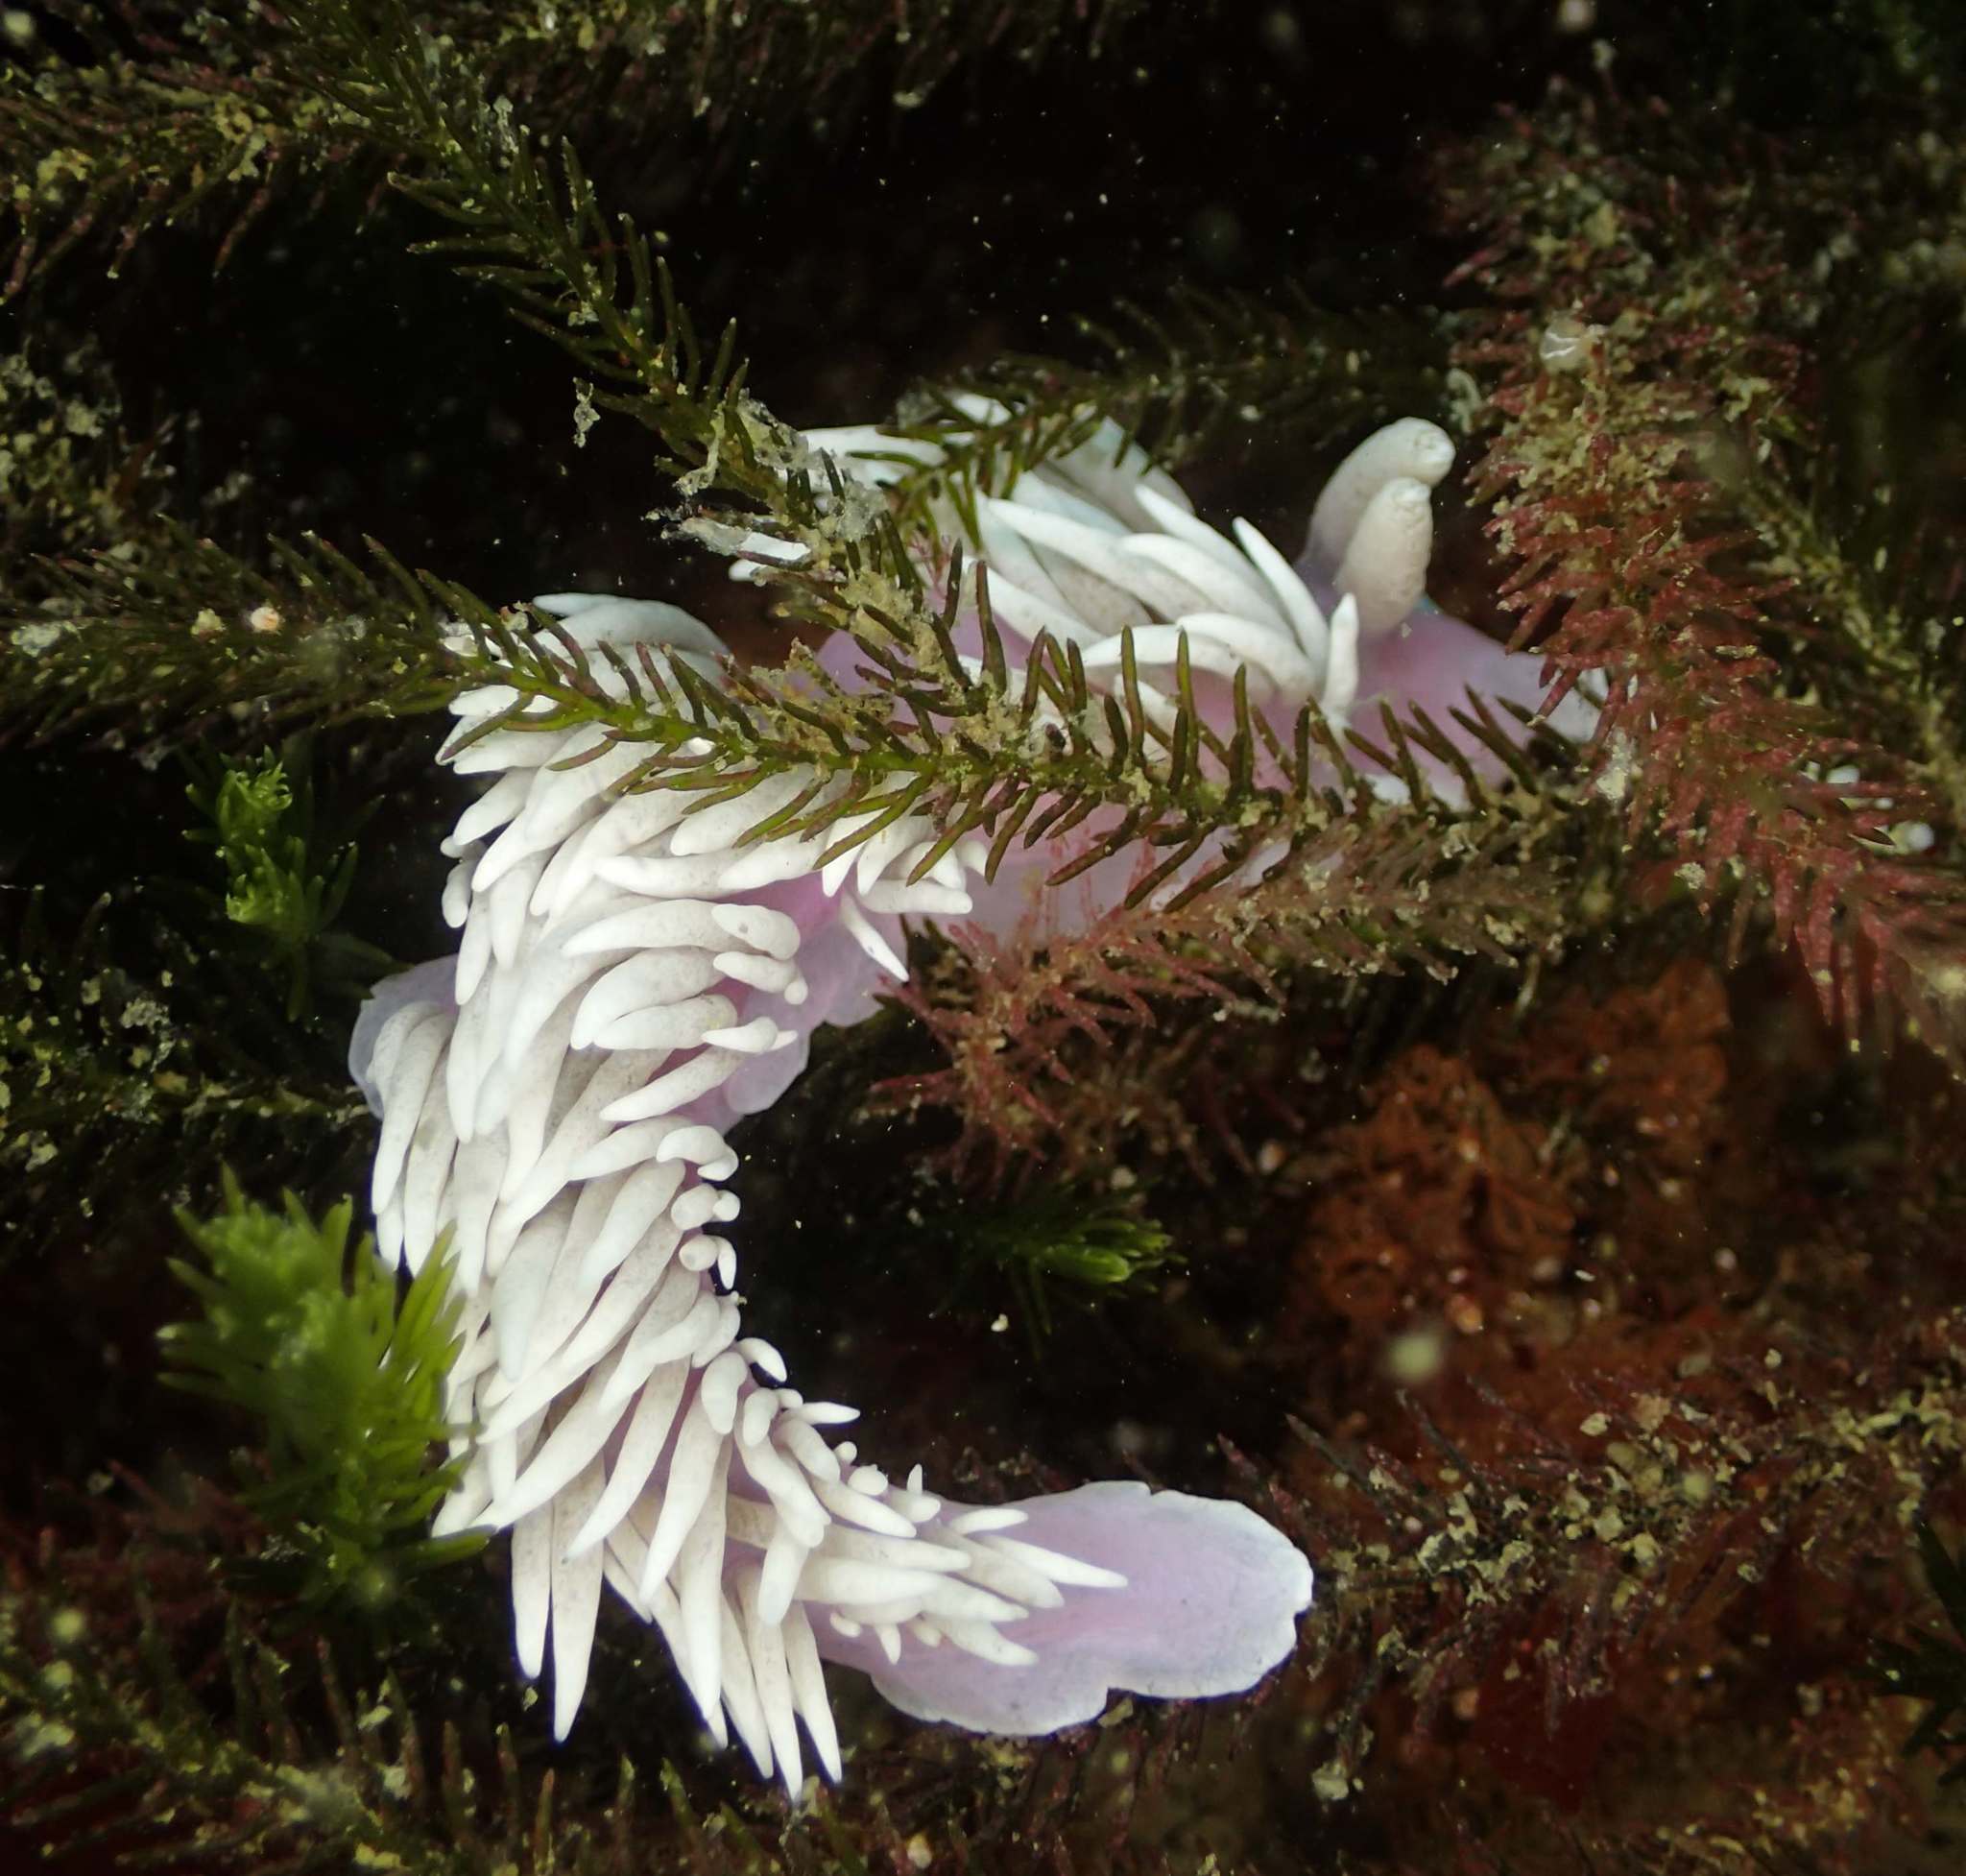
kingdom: Animalia
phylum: Mollusca
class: Gastropoda
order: Nudibranchia
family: Facelinidae
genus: Jason
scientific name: Jason mirabilis
